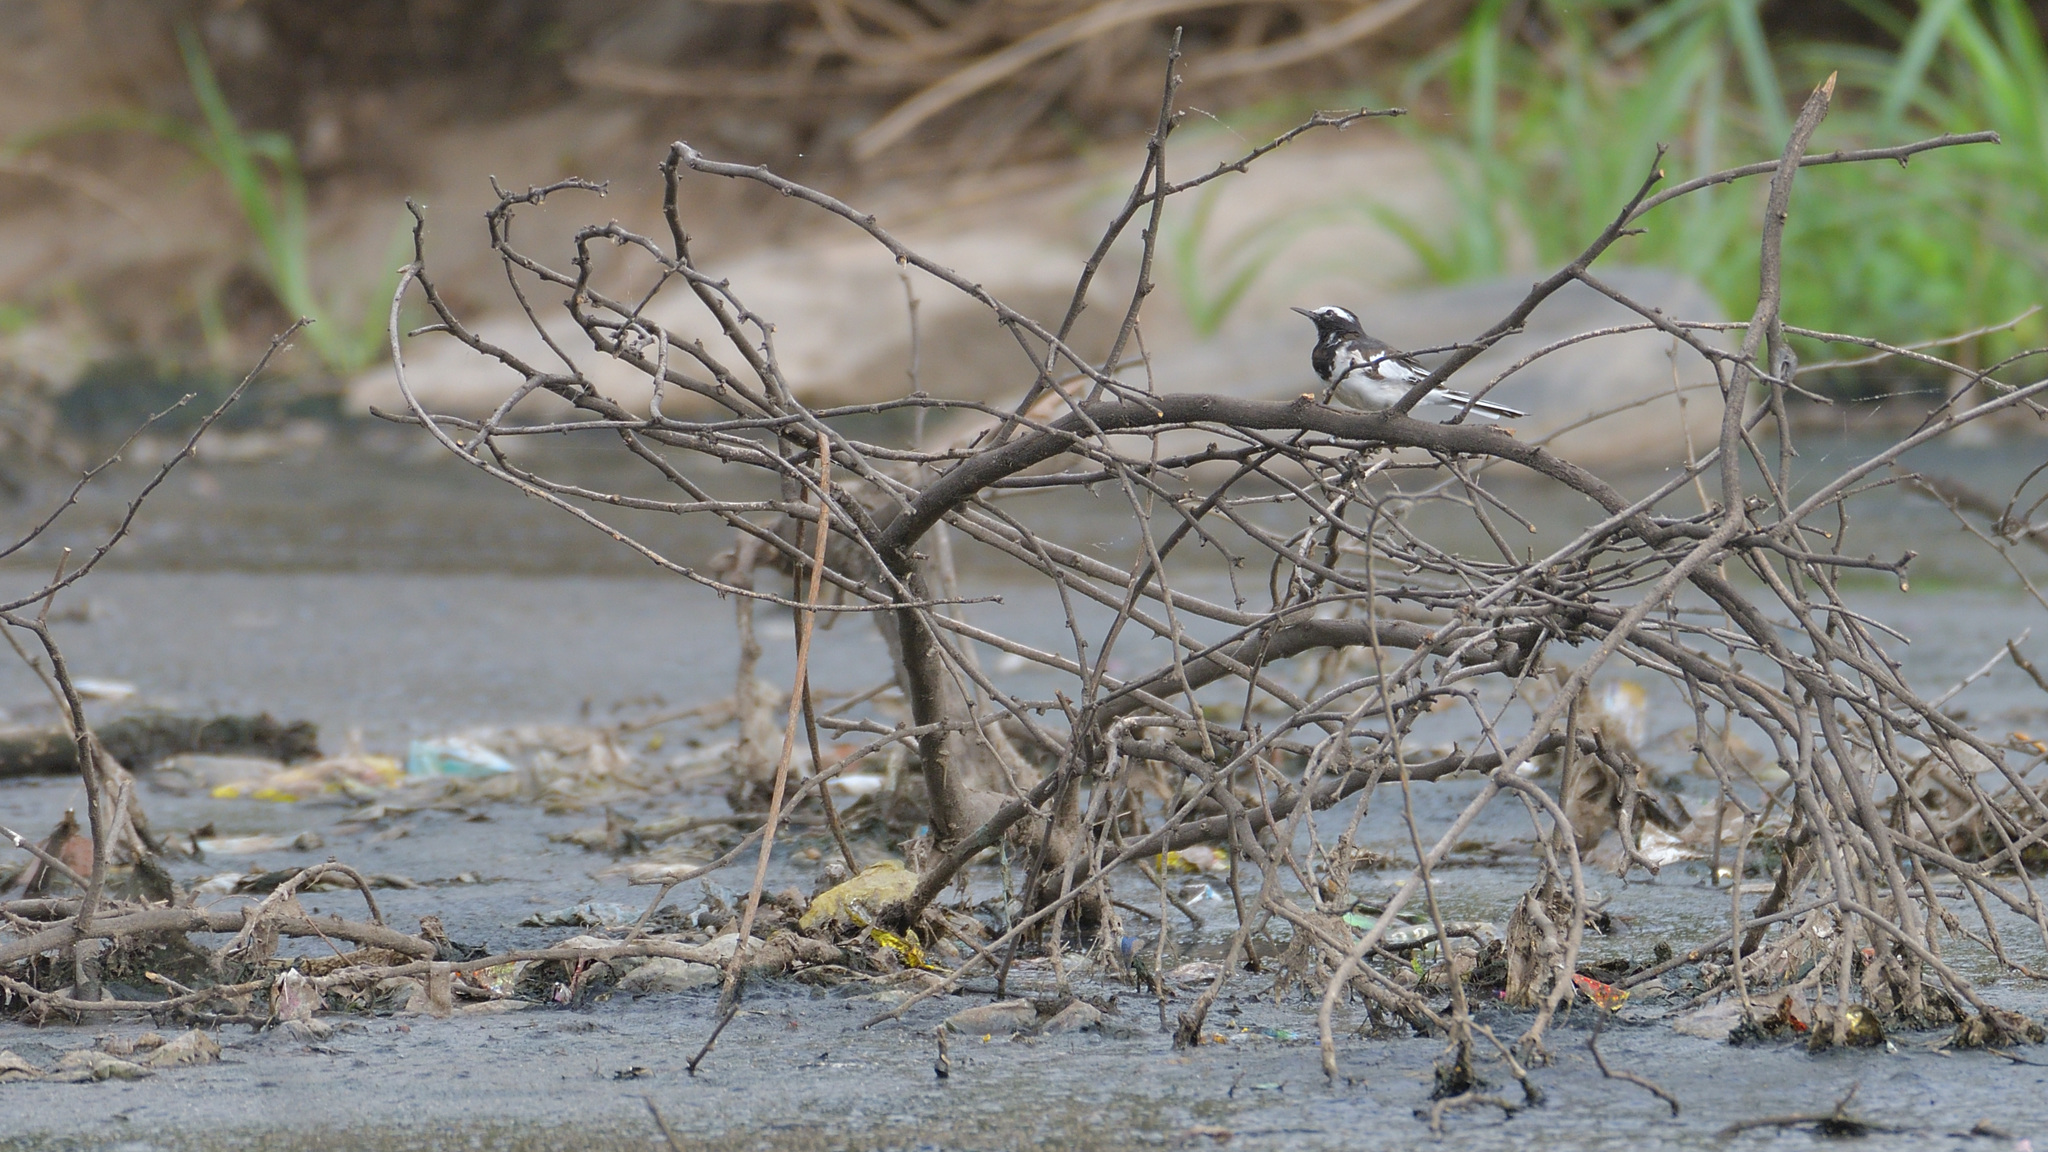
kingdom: Animalia
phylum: Chordata
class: Aves
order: Passeriformes
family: Motacillidae
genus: Motacilla
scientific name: Motacilla maderaspatensis
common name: White-browed wagtail
